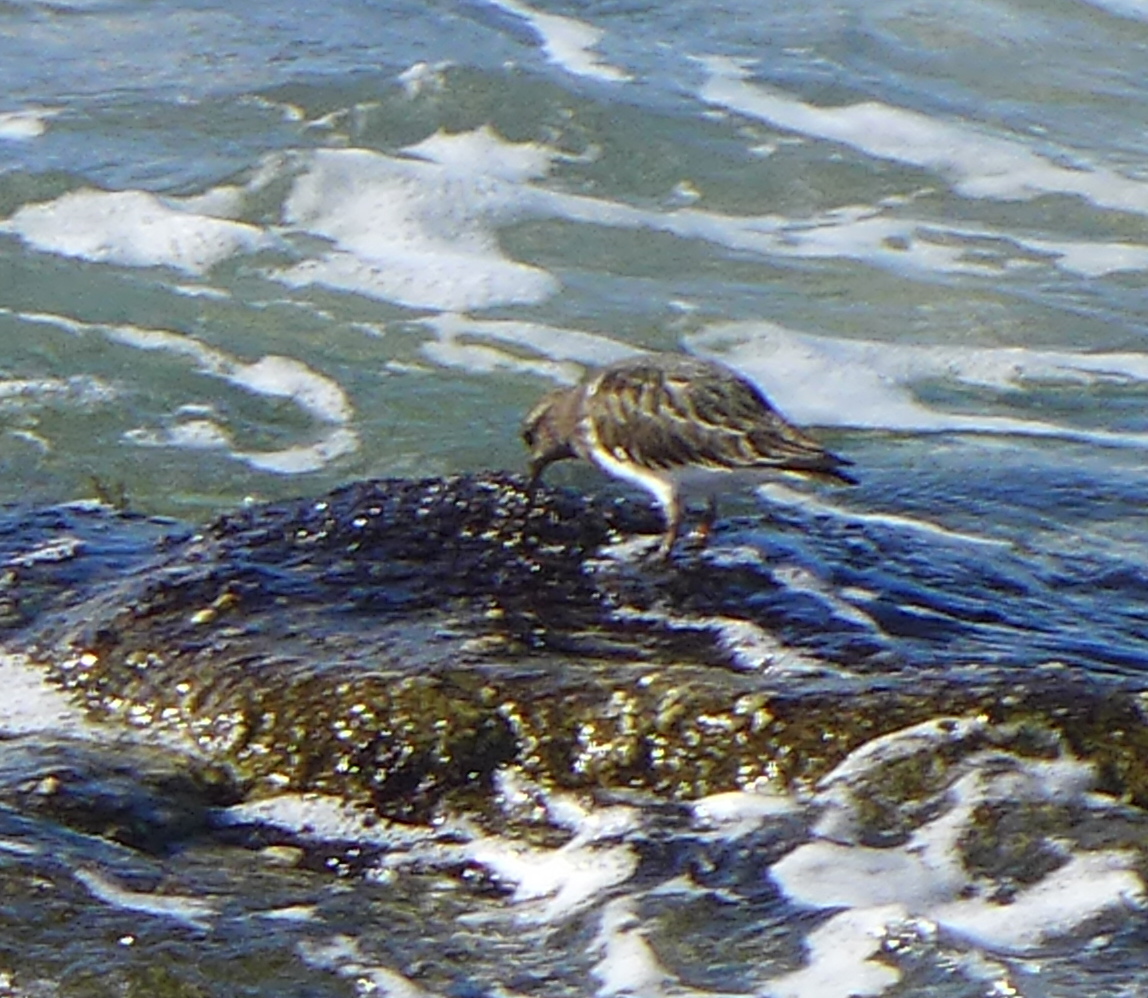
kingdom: Animalia
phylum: Chordata
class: Aves
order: Charadriiformes
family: Scolopacidae
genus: Arenaria
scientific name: Arenaria melanocephala
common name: Black turnstone
